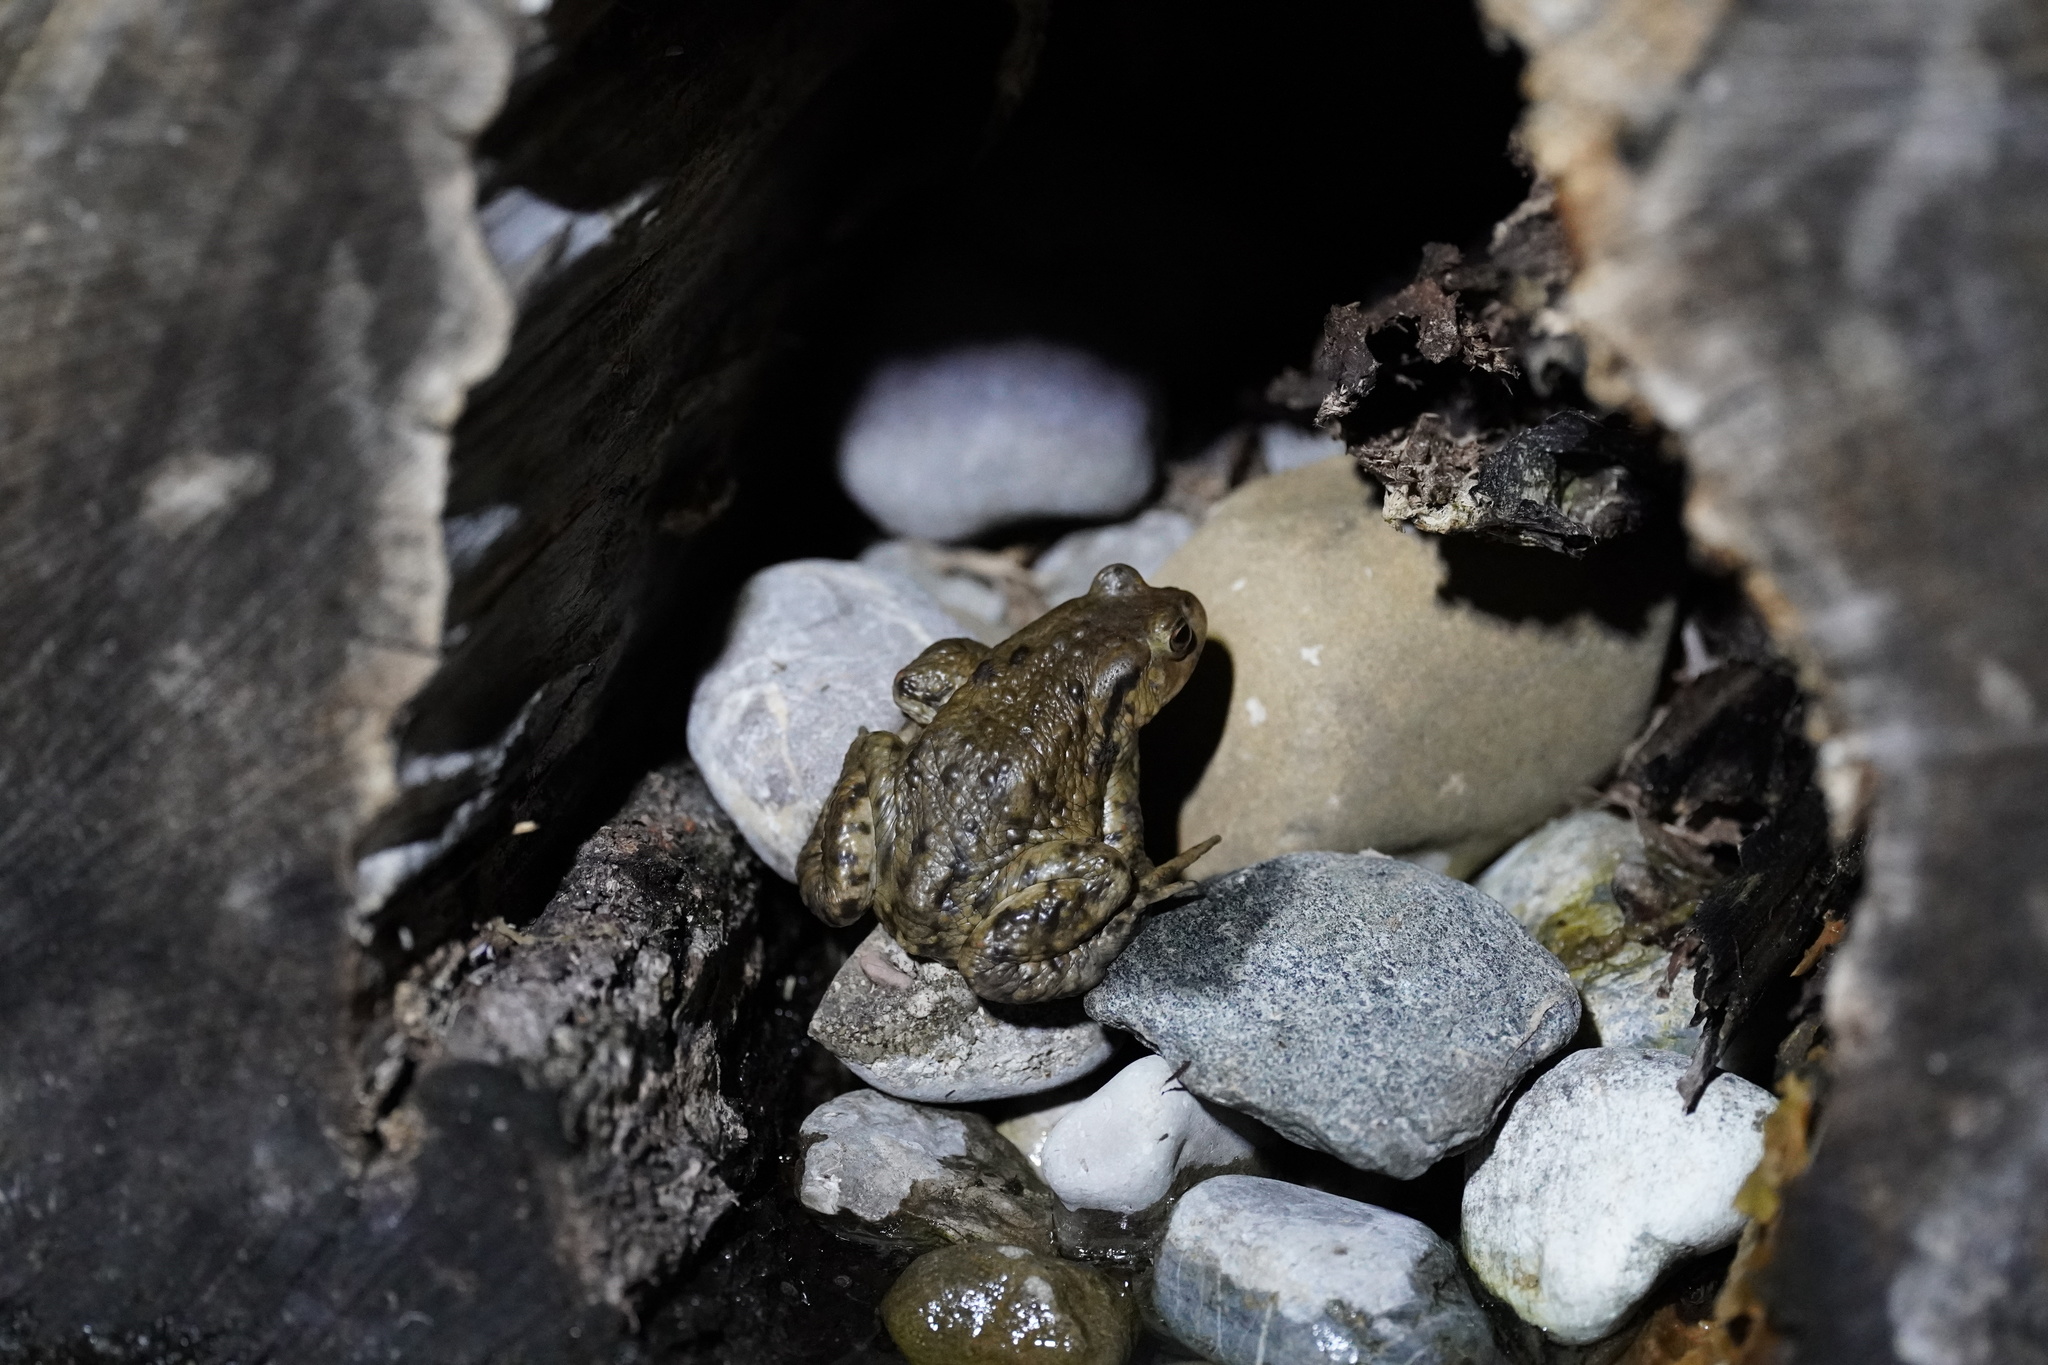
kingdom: Animalia
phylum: Chordata
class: Amphibia
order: Anura
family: Bufonidae
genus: Bufo
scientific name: Bufo bufo
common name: Common toad
